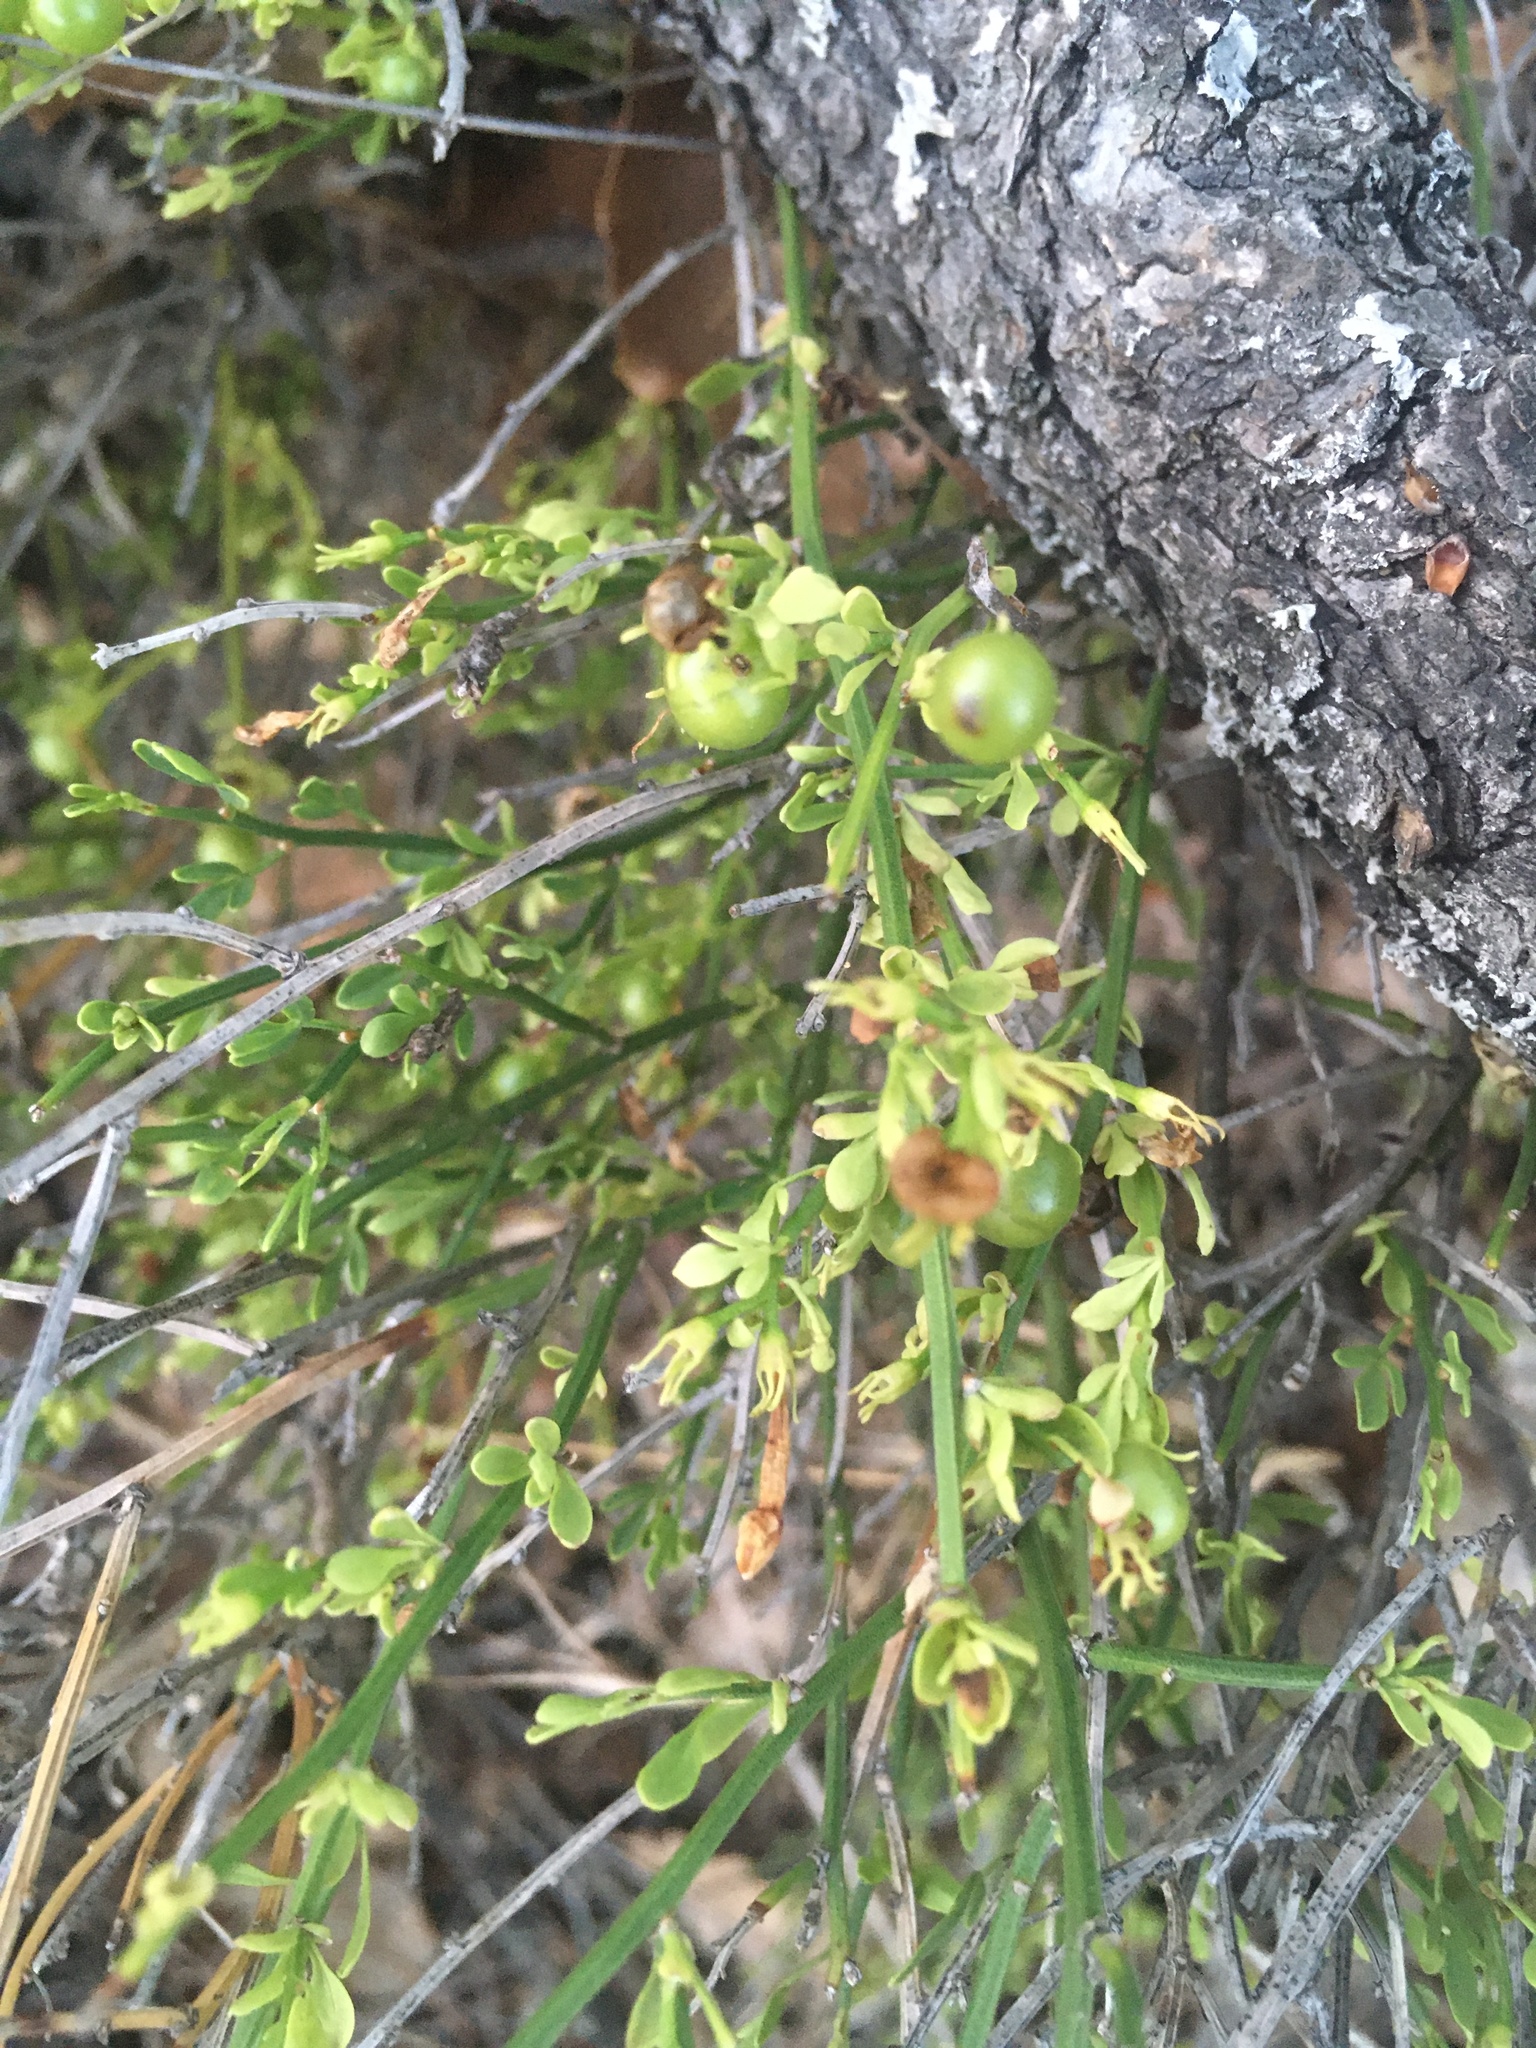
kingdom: Plantae
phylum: Tracheophyta
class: Magnoliopsida
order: Lamiales
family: Oleaceae
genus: Chrysojasminum
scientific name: Chrysojasminum fruticans
